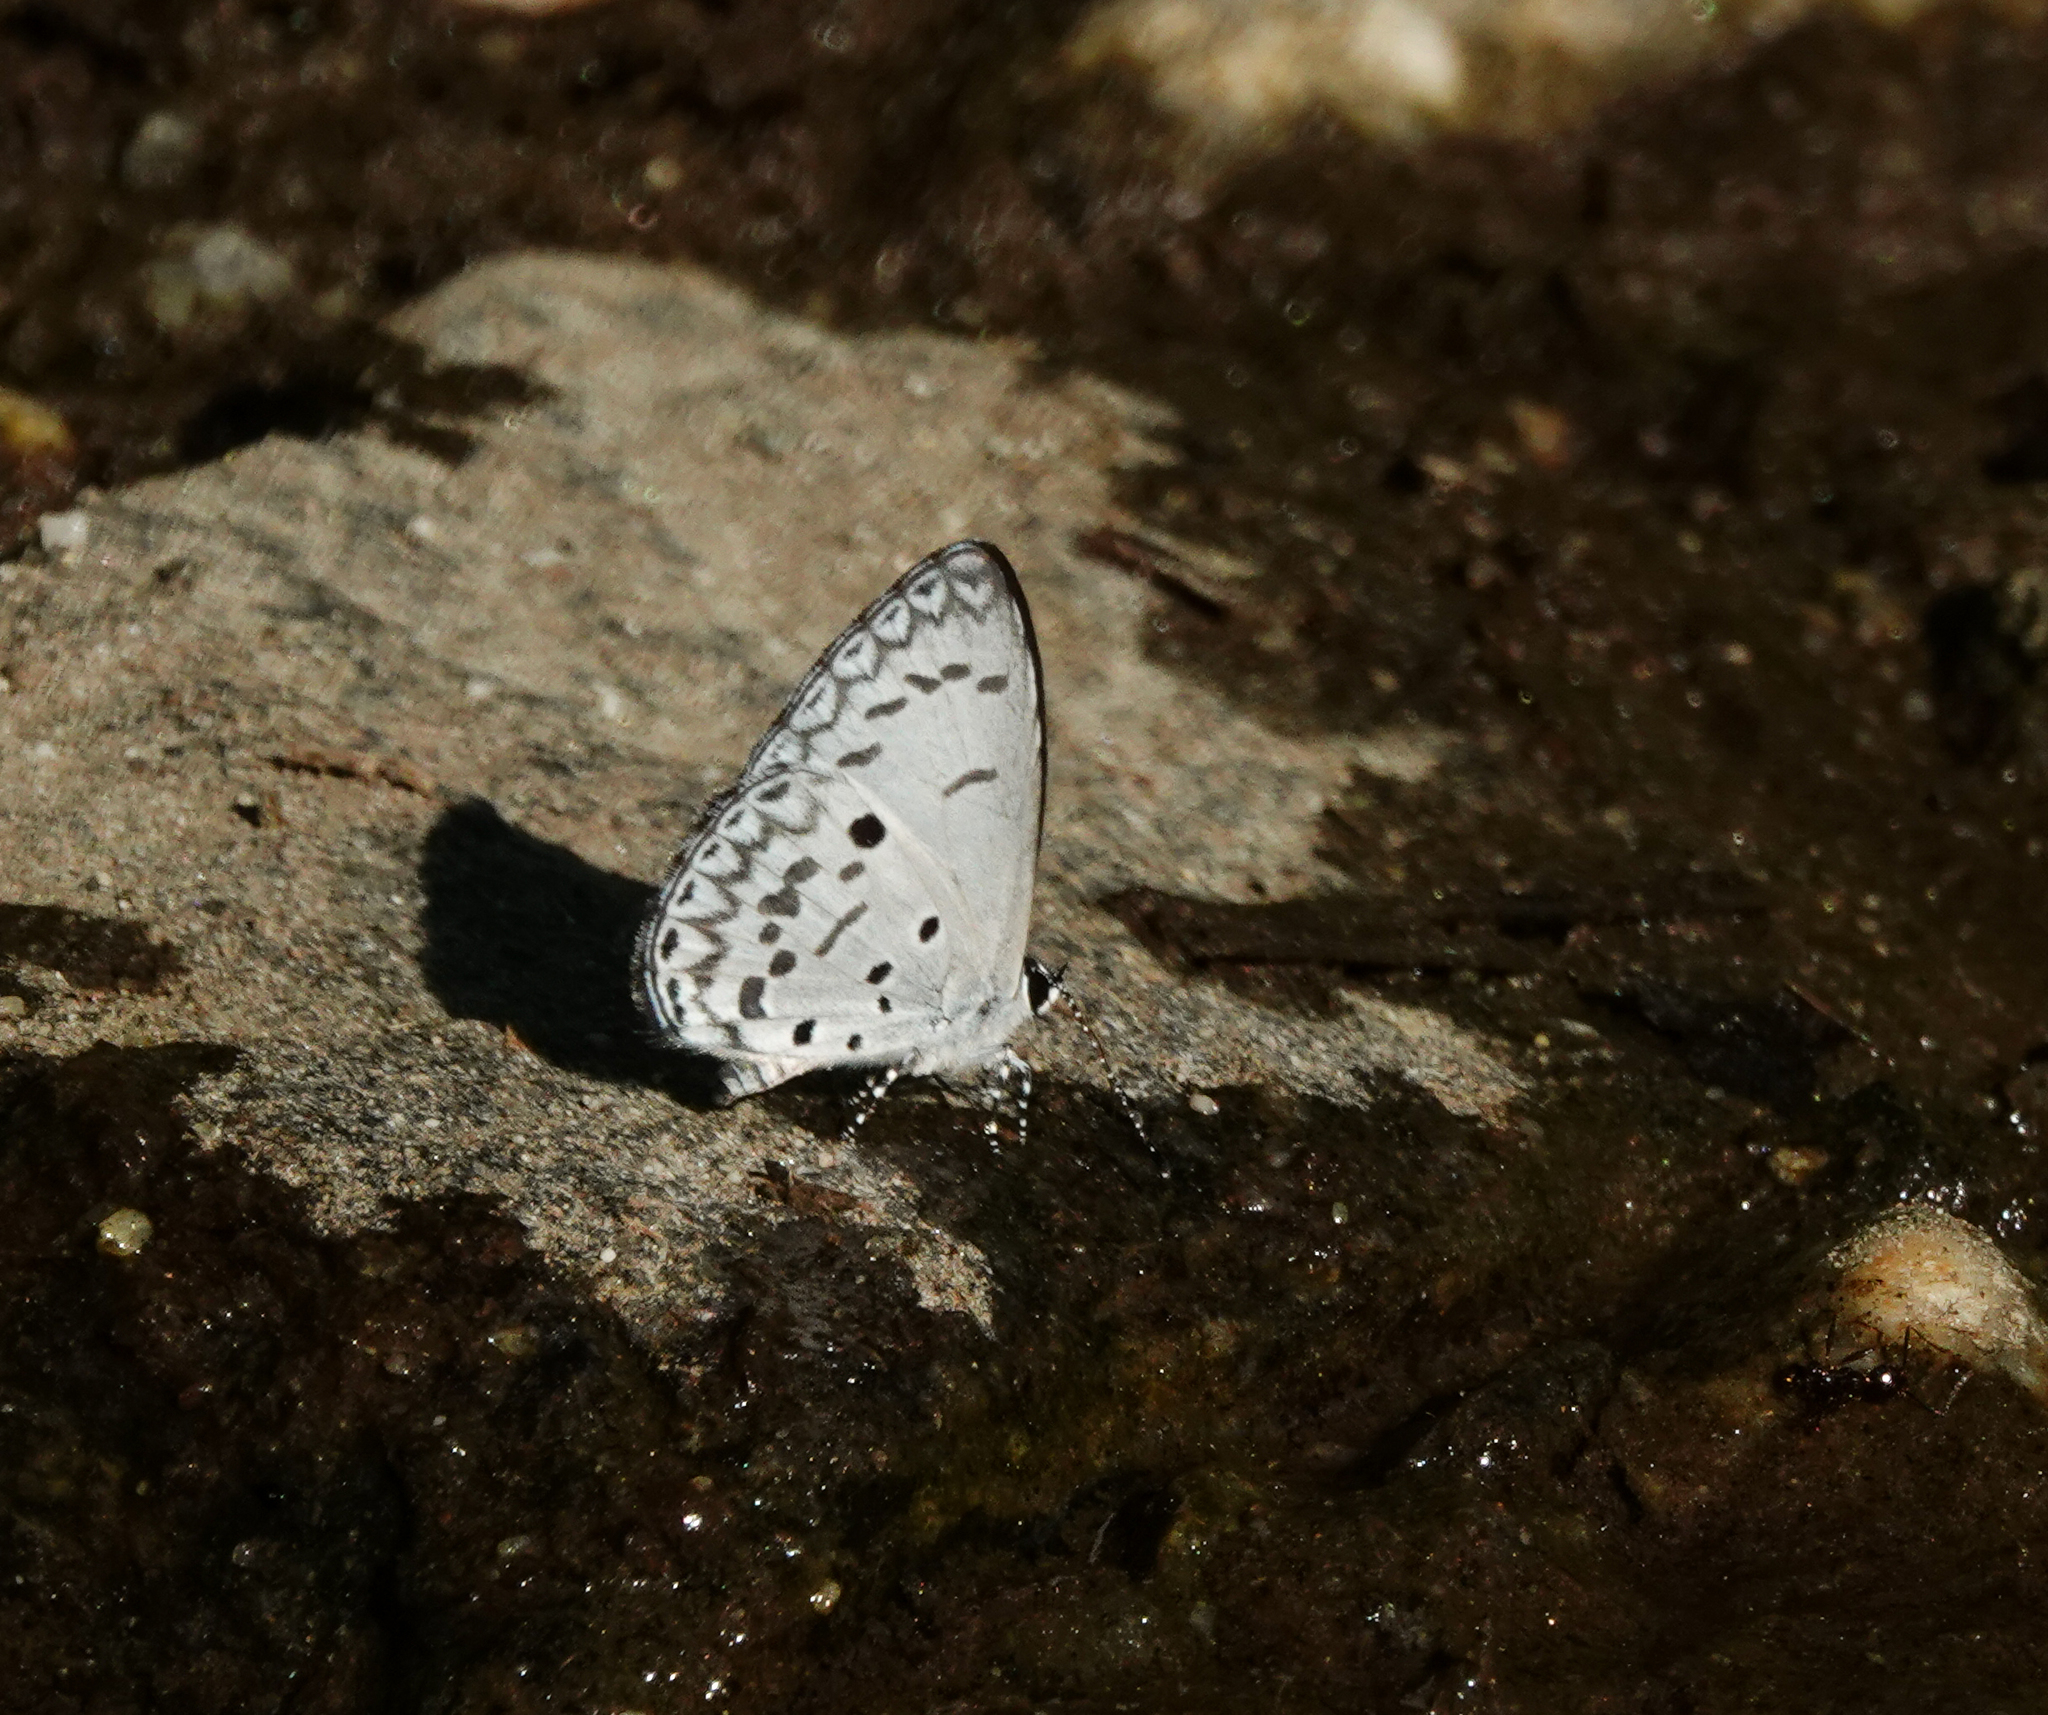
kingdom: Animalia
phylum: Arthropoda
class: Insecta
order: Lepidoptera
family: Lycaenidae
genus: Acytolepis
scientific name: Acytolepis puspa
